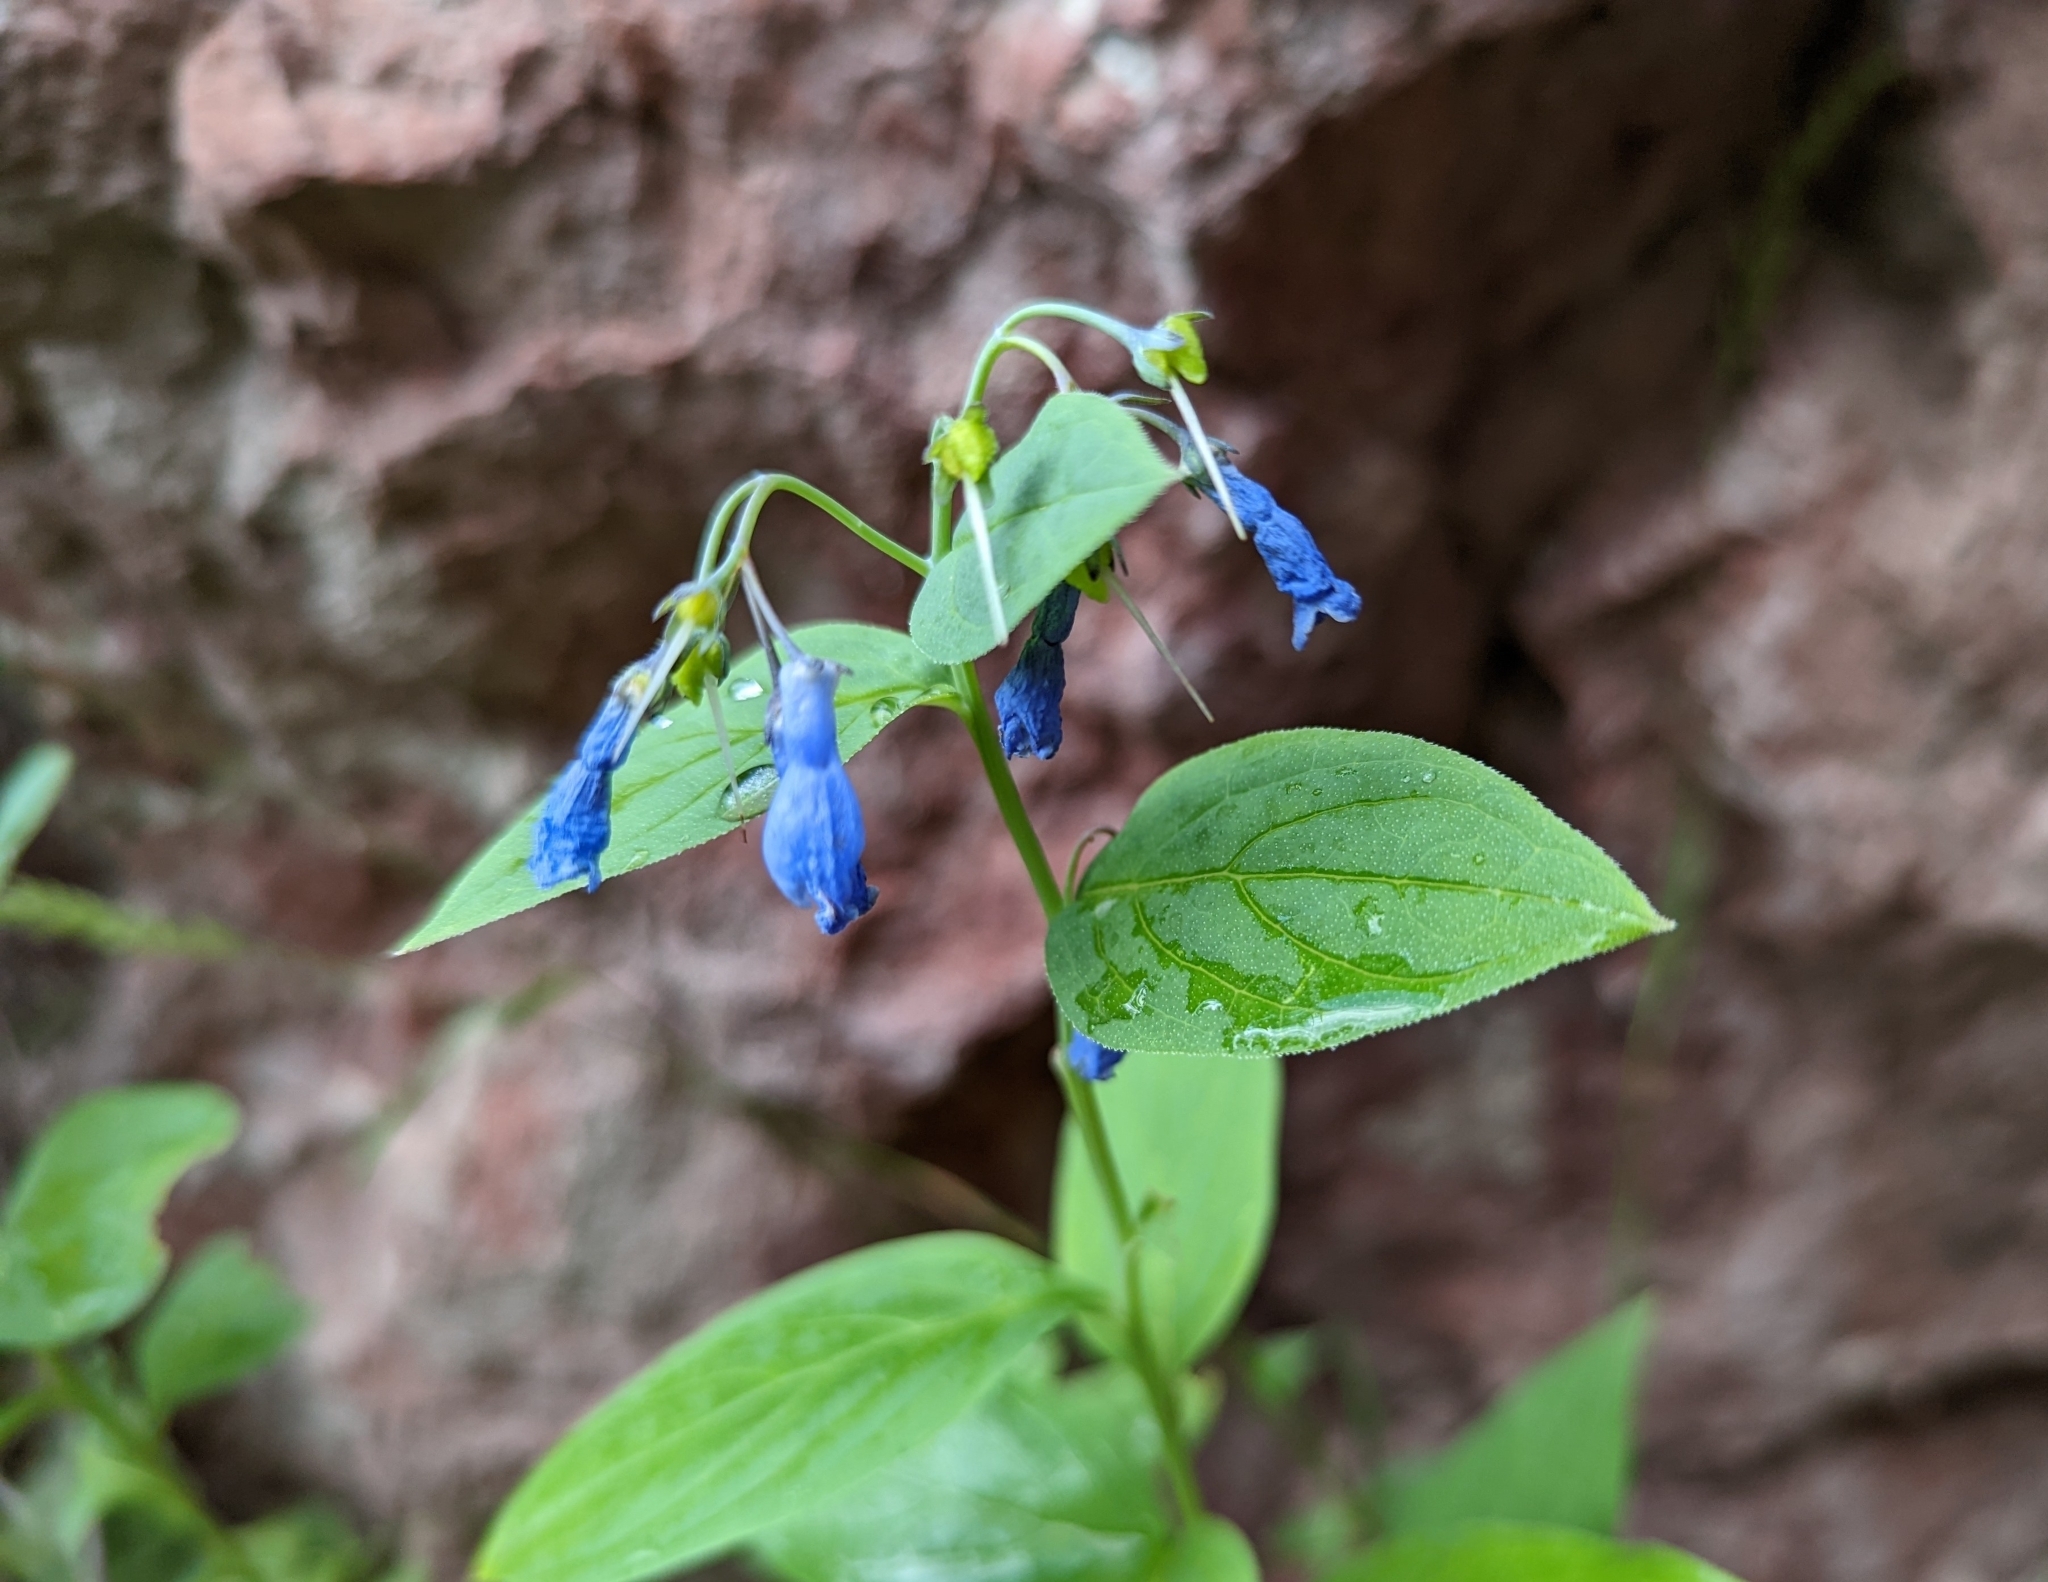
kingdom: Plantae
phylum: Tracheophyta
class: Magnoliopsida
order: Boraginales
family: Boraginaceae
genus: Mertensia
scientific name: Mertensia ciliata
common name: Tall chiming-bells
